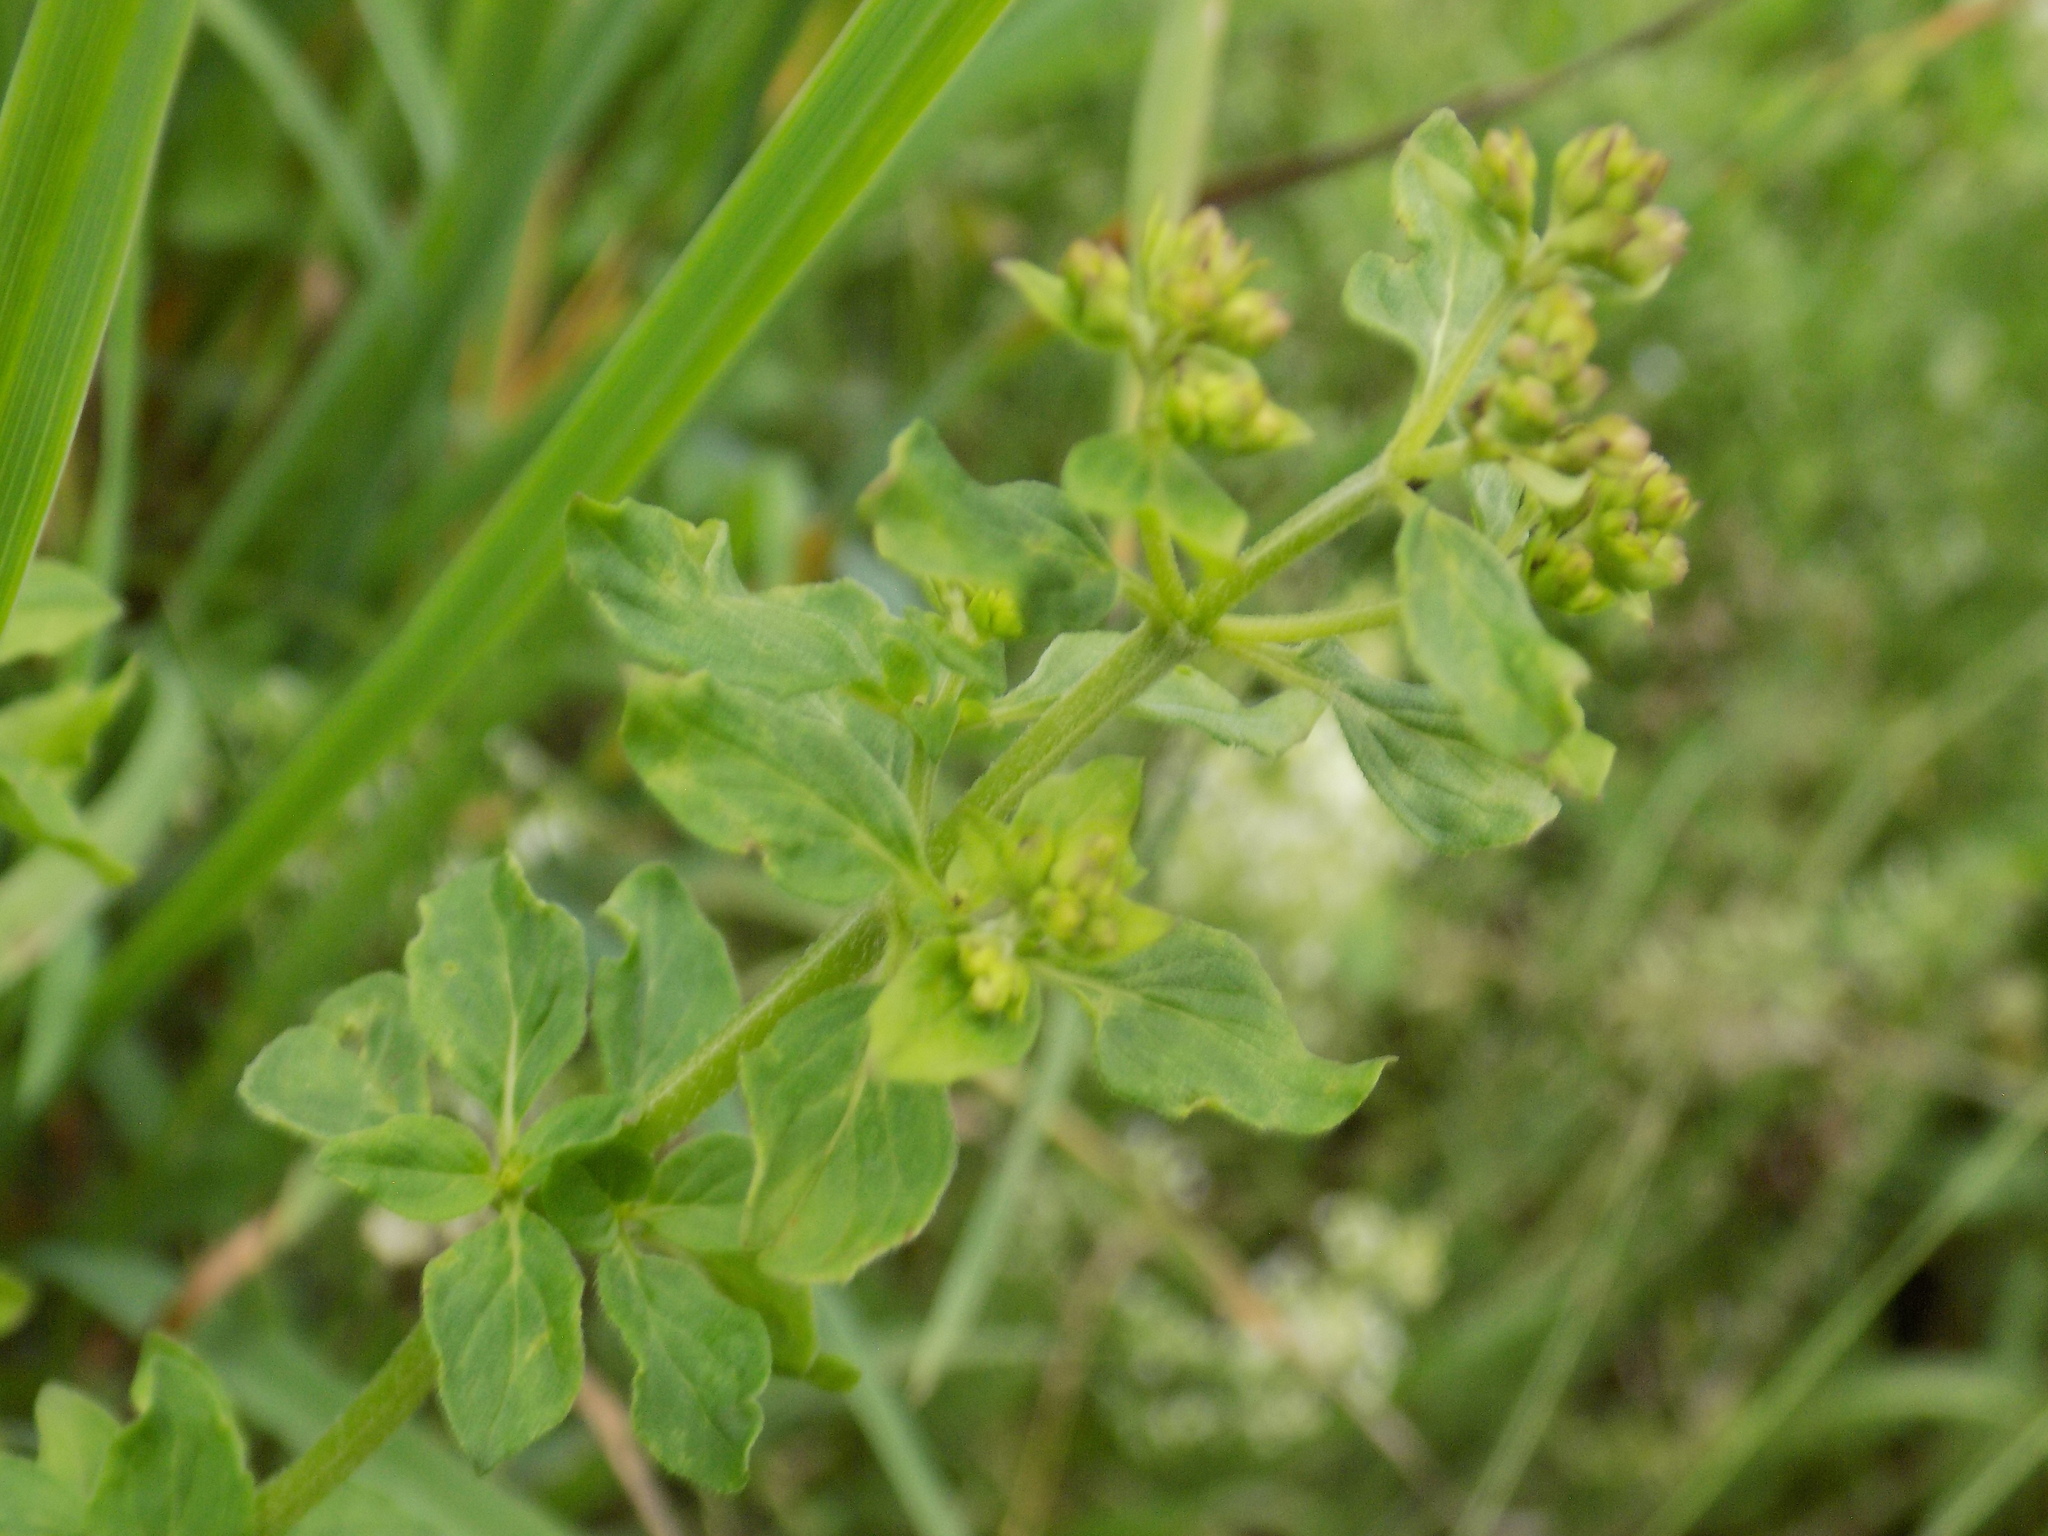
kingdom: Plantae
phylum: Tracheophyta
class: Magnoliopsida
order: Lamiales
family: Lamiaceae
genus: Origanum
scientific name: Origanum vulgare
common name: Wild marjoram
